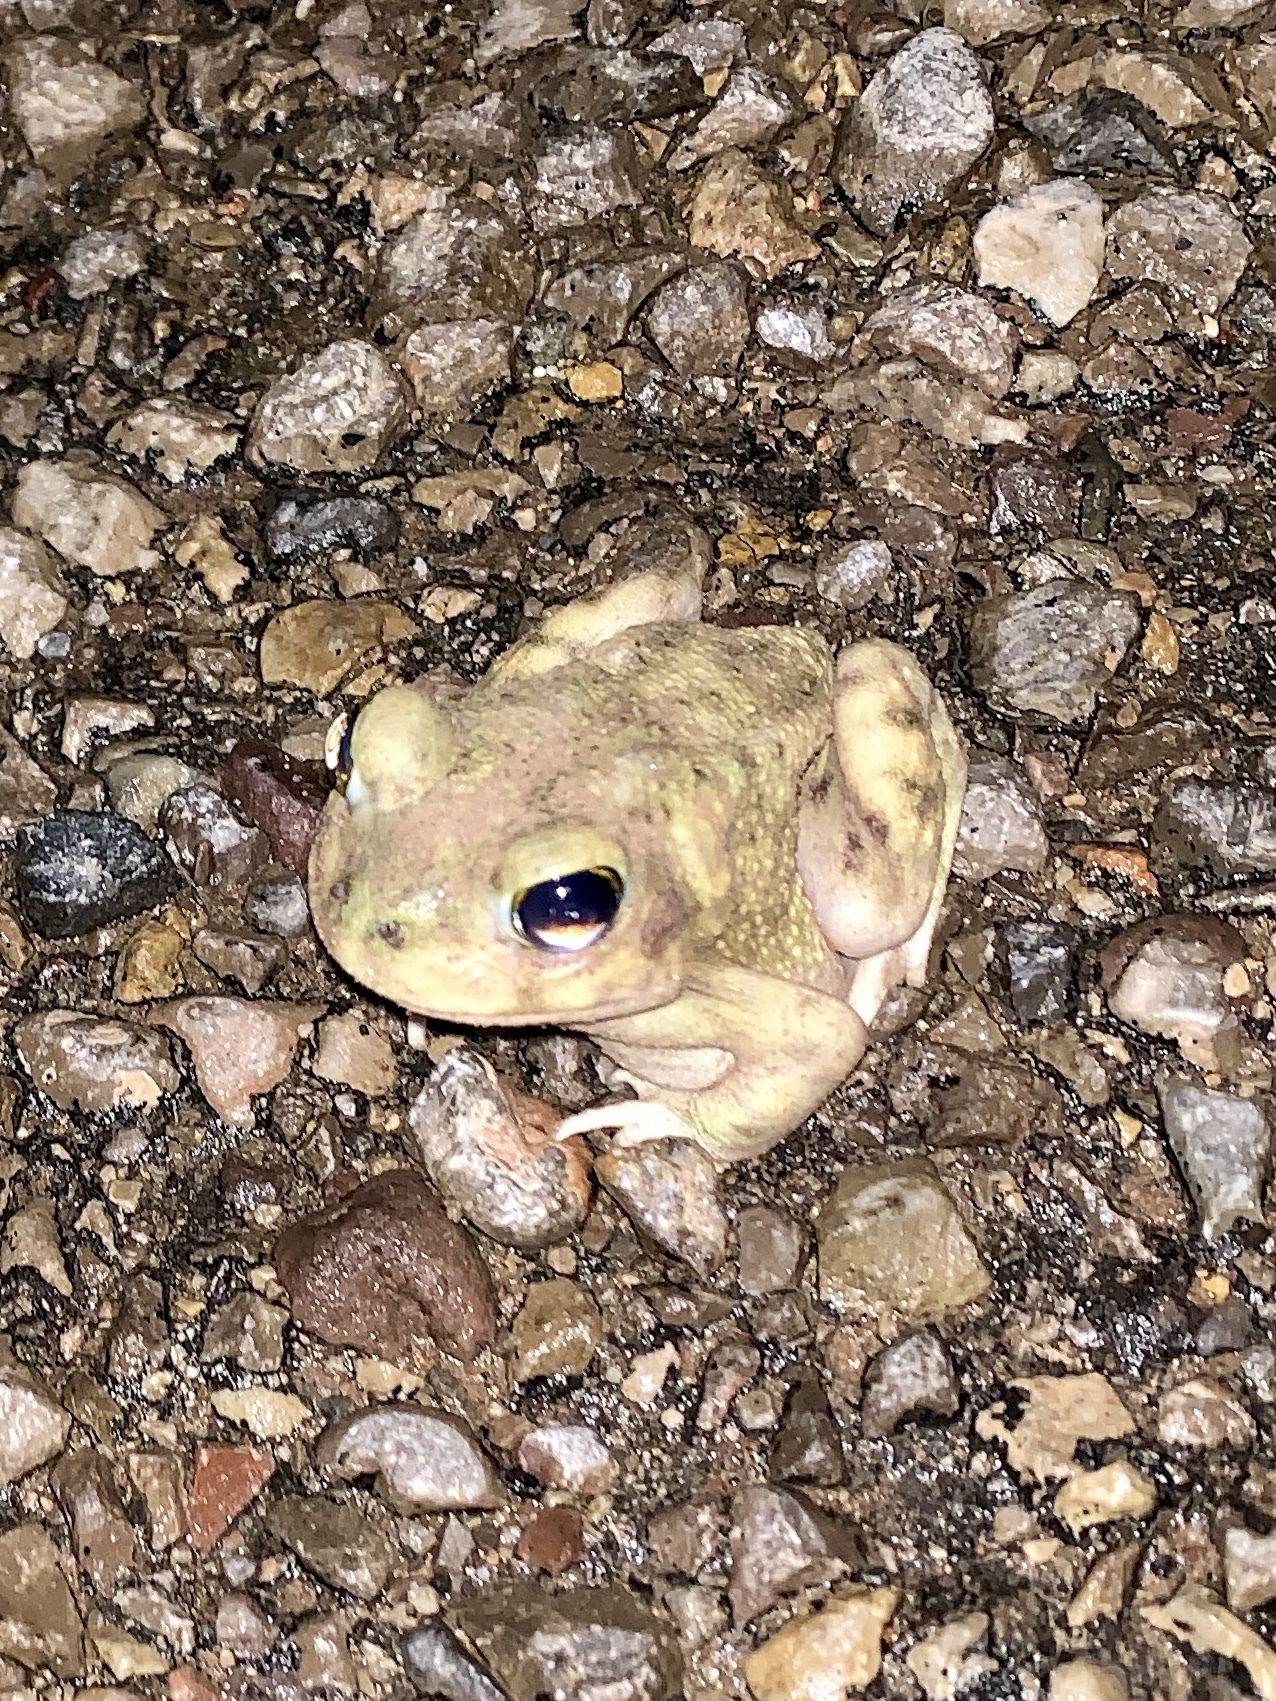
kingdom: Animalia
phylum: Chordata
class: Amphibia
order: Anura
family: Scaphiopodidae
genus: Scaphiopus
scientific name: Scaphiopus couchii
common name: Couch's spadefoot toad
